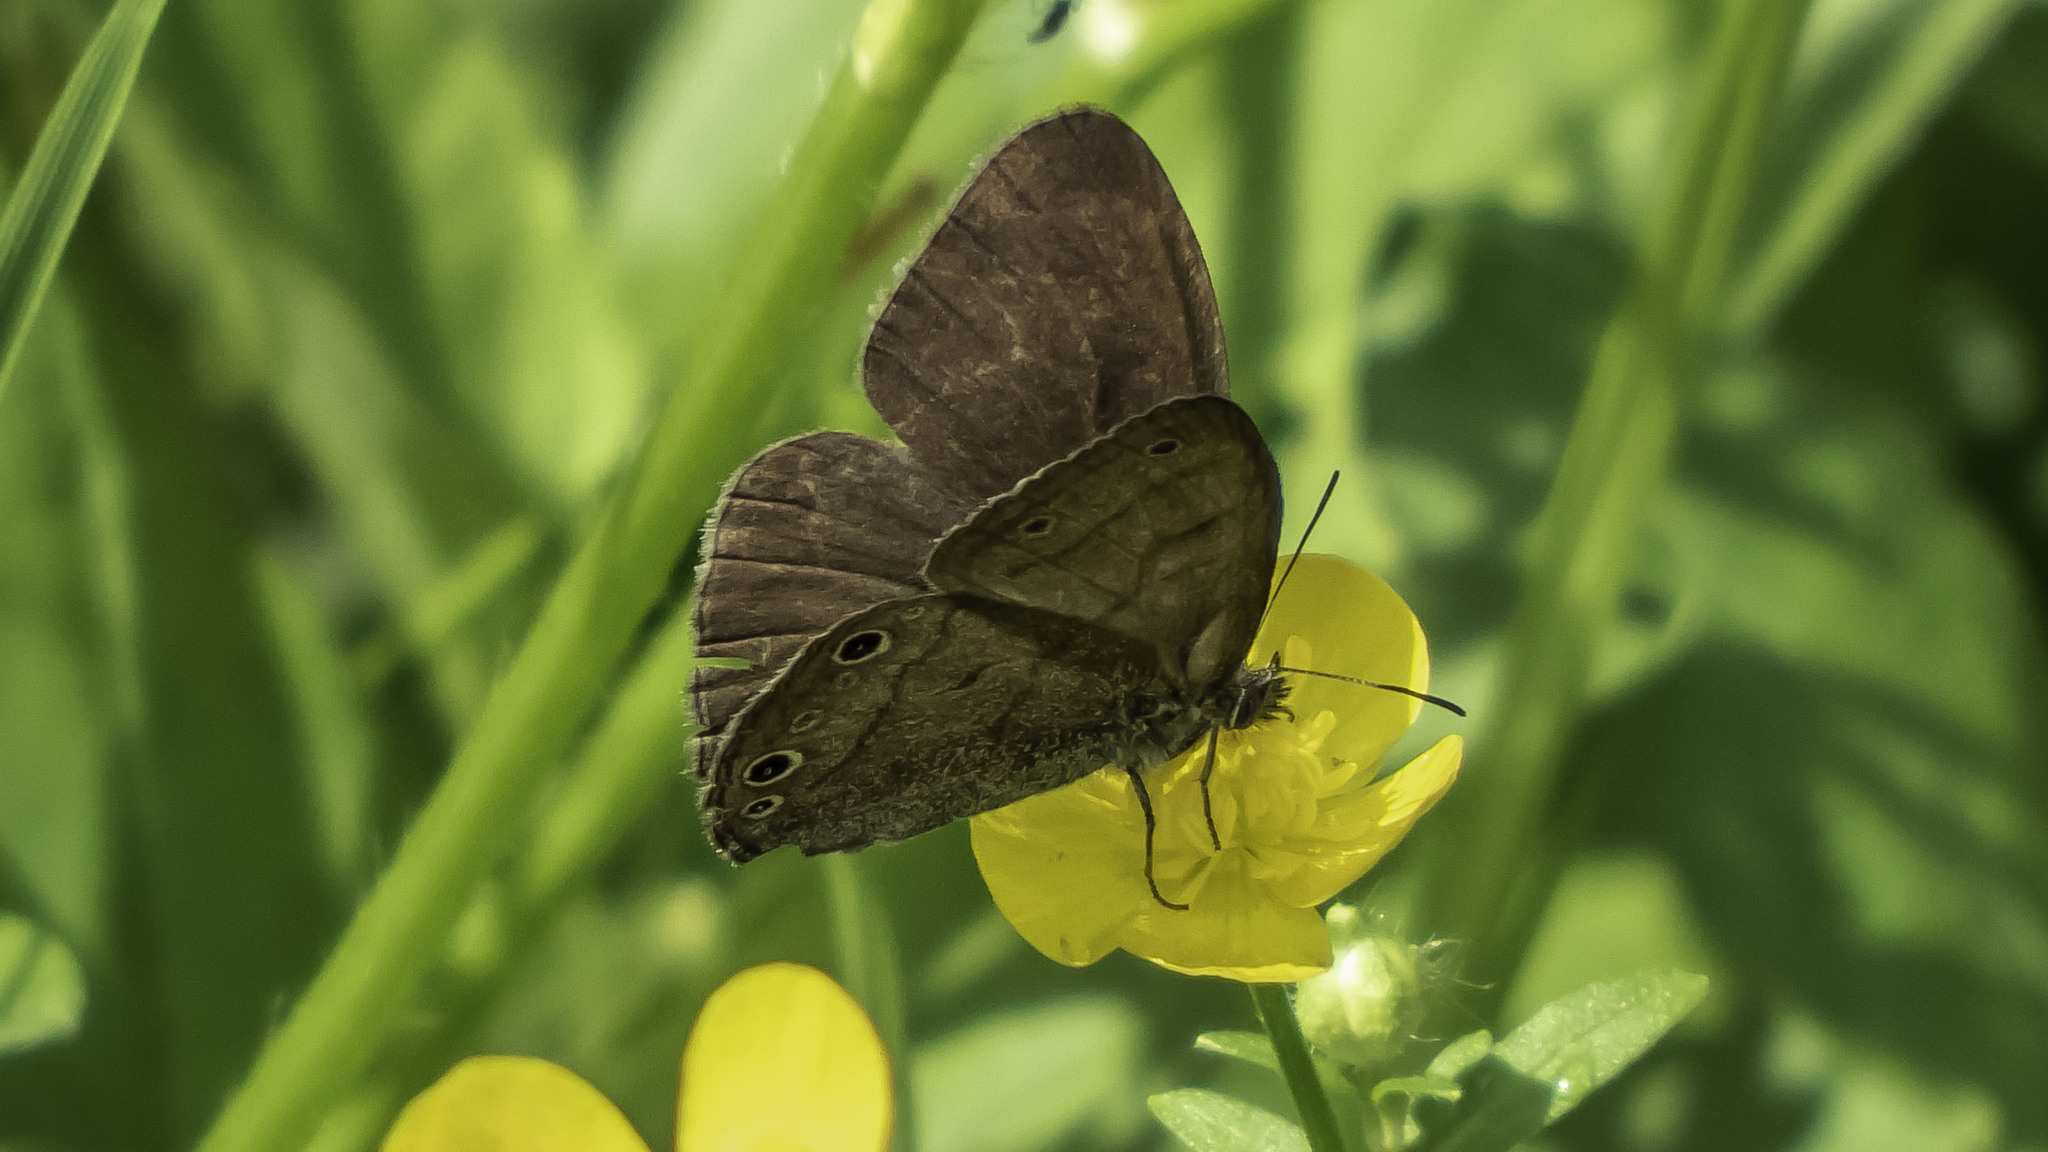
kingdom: Animalia
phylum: Arthropoda
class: Insecta
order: Lepidoptera
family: Nymphalidae
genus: Hermeuptychia
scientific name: Hermeuptychia hermes
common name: Hermes satyr
